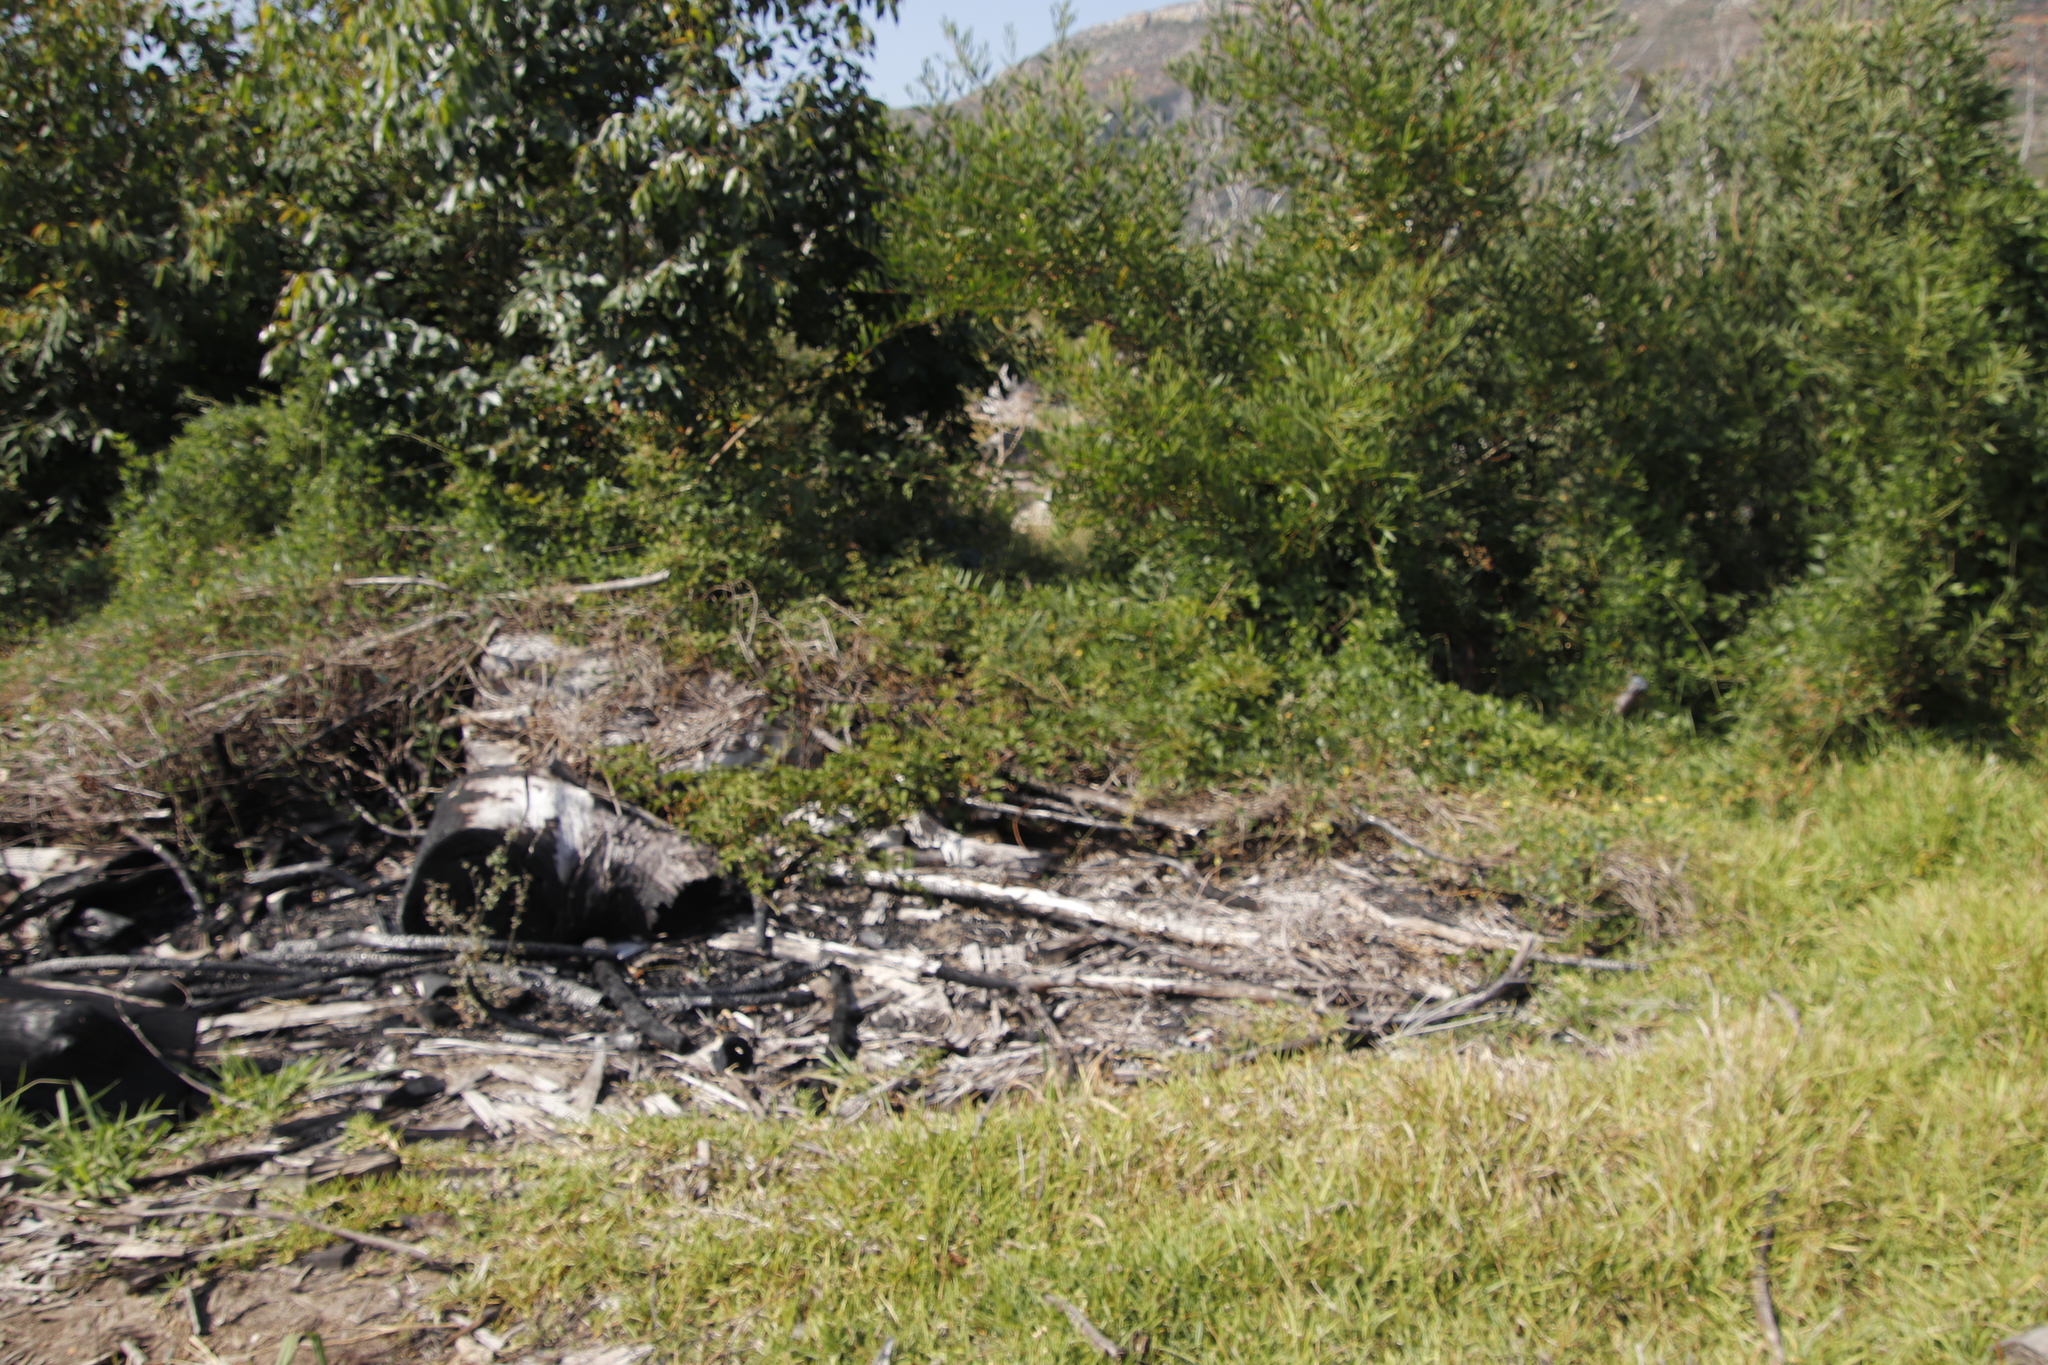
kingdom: Plantae
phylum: Tracheophyta
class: Magnoliopsida
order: Rosales
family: Rosaceae
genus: Rubus
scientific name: Rubus pinnatus
